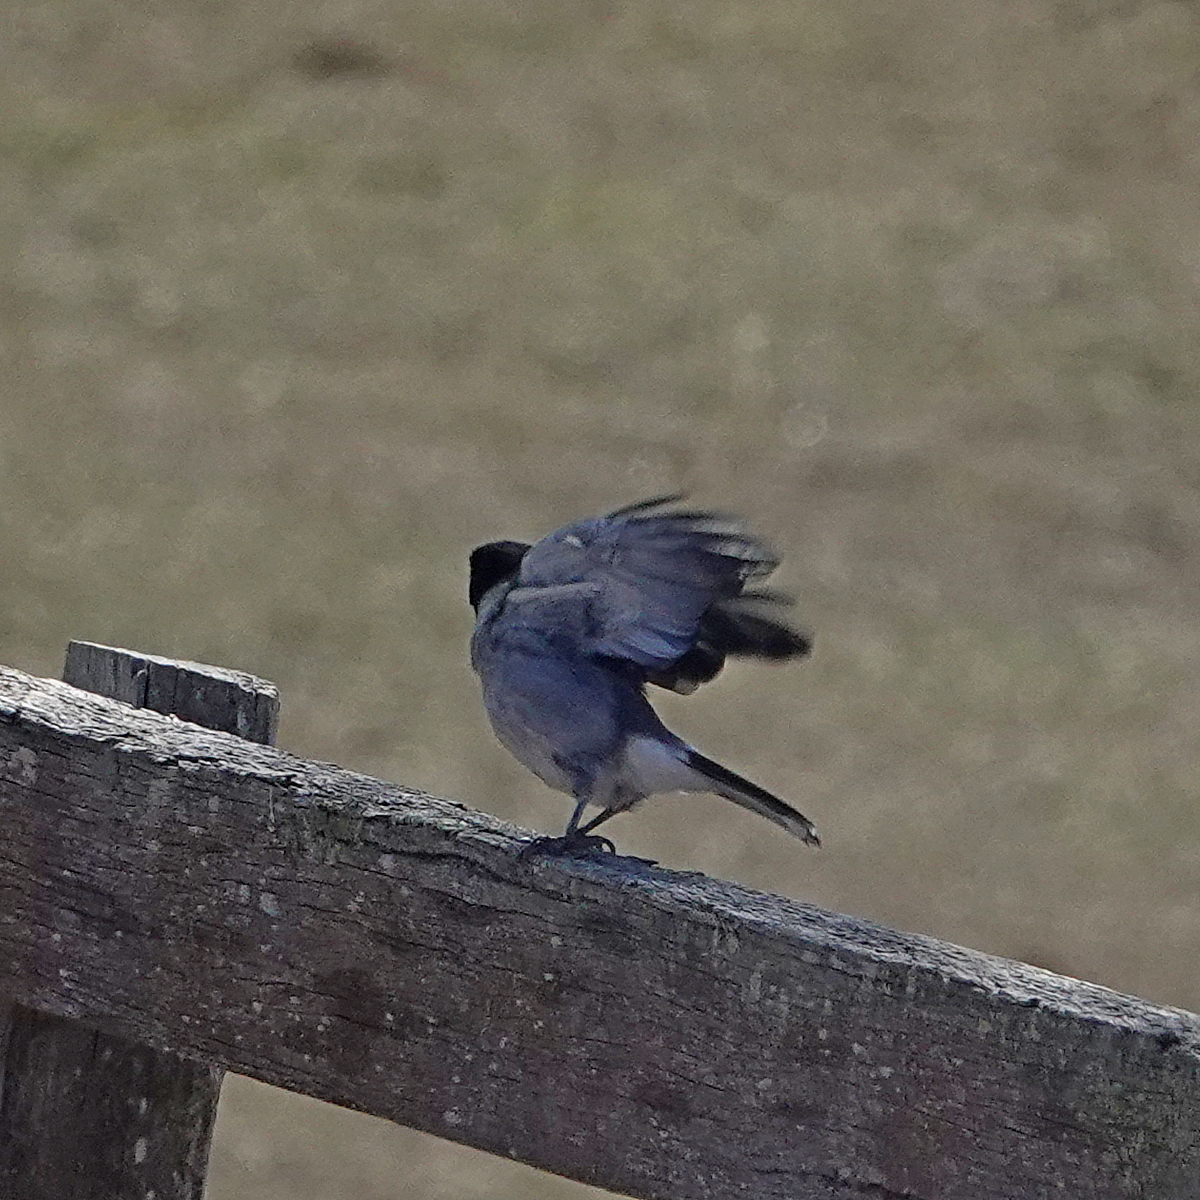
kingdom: Animalia
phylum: Chordata
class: Aves
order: Passeriformes
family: Cracticidae
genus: Cracticus
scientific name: Cracticus torquatus
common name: Grey butcherbird
